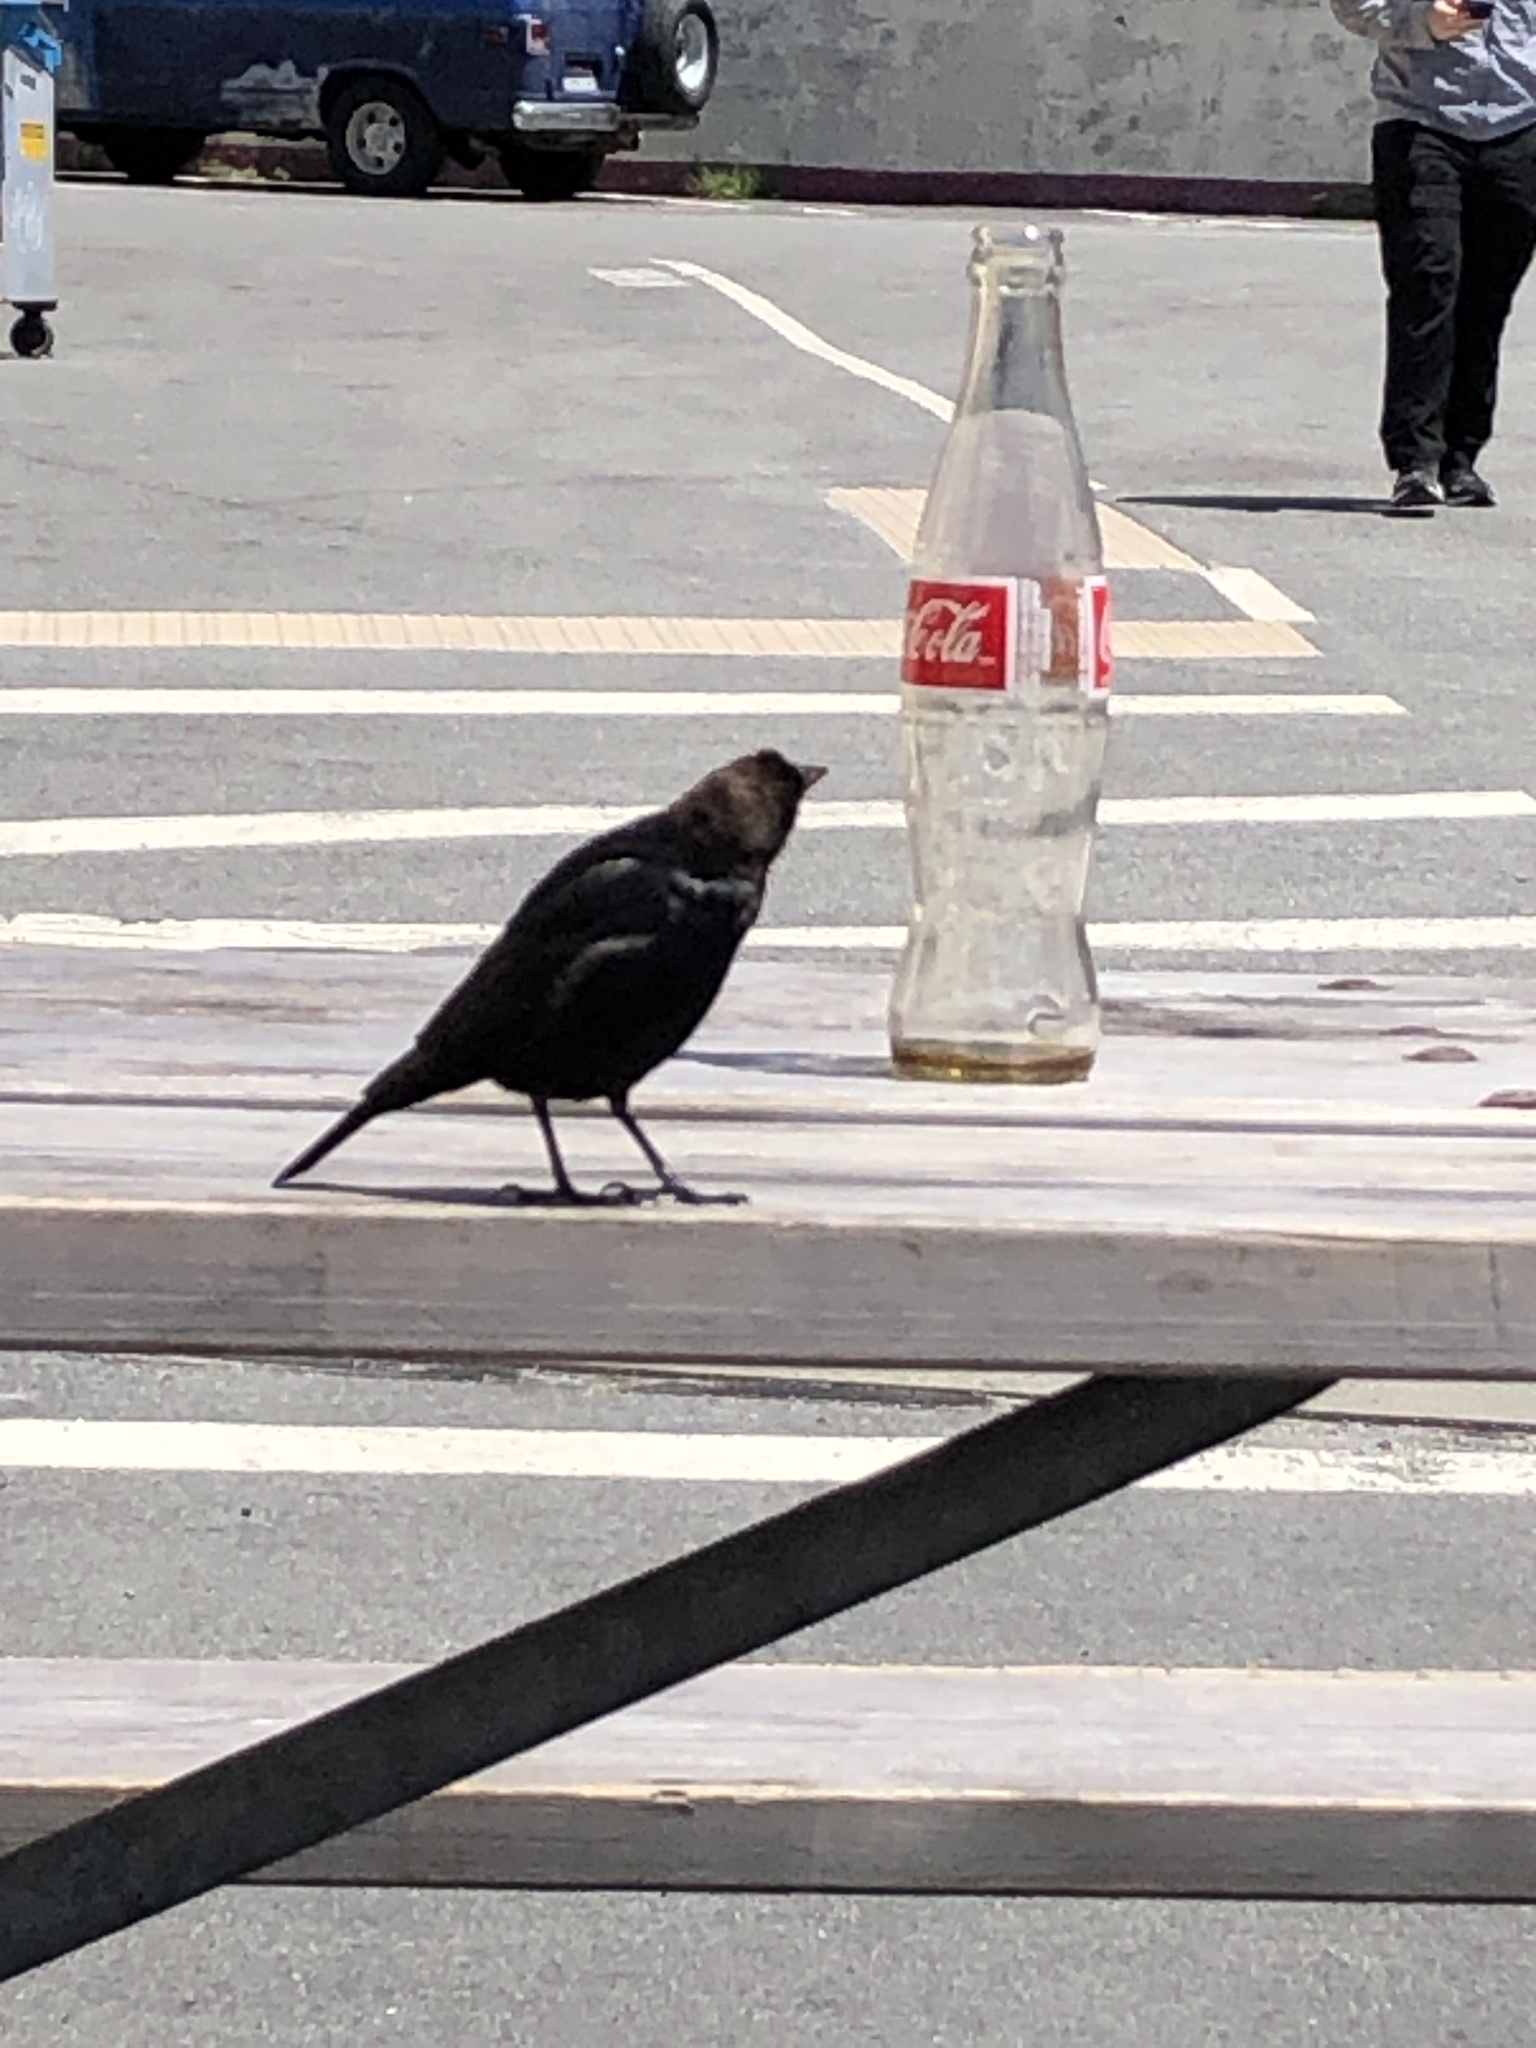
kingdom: Animalia
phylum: Chordata
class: Aves
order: Passeriformes
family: Icteridae
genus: Molothrus
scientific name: Molothrus ater
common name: Brown-headed cowbird
